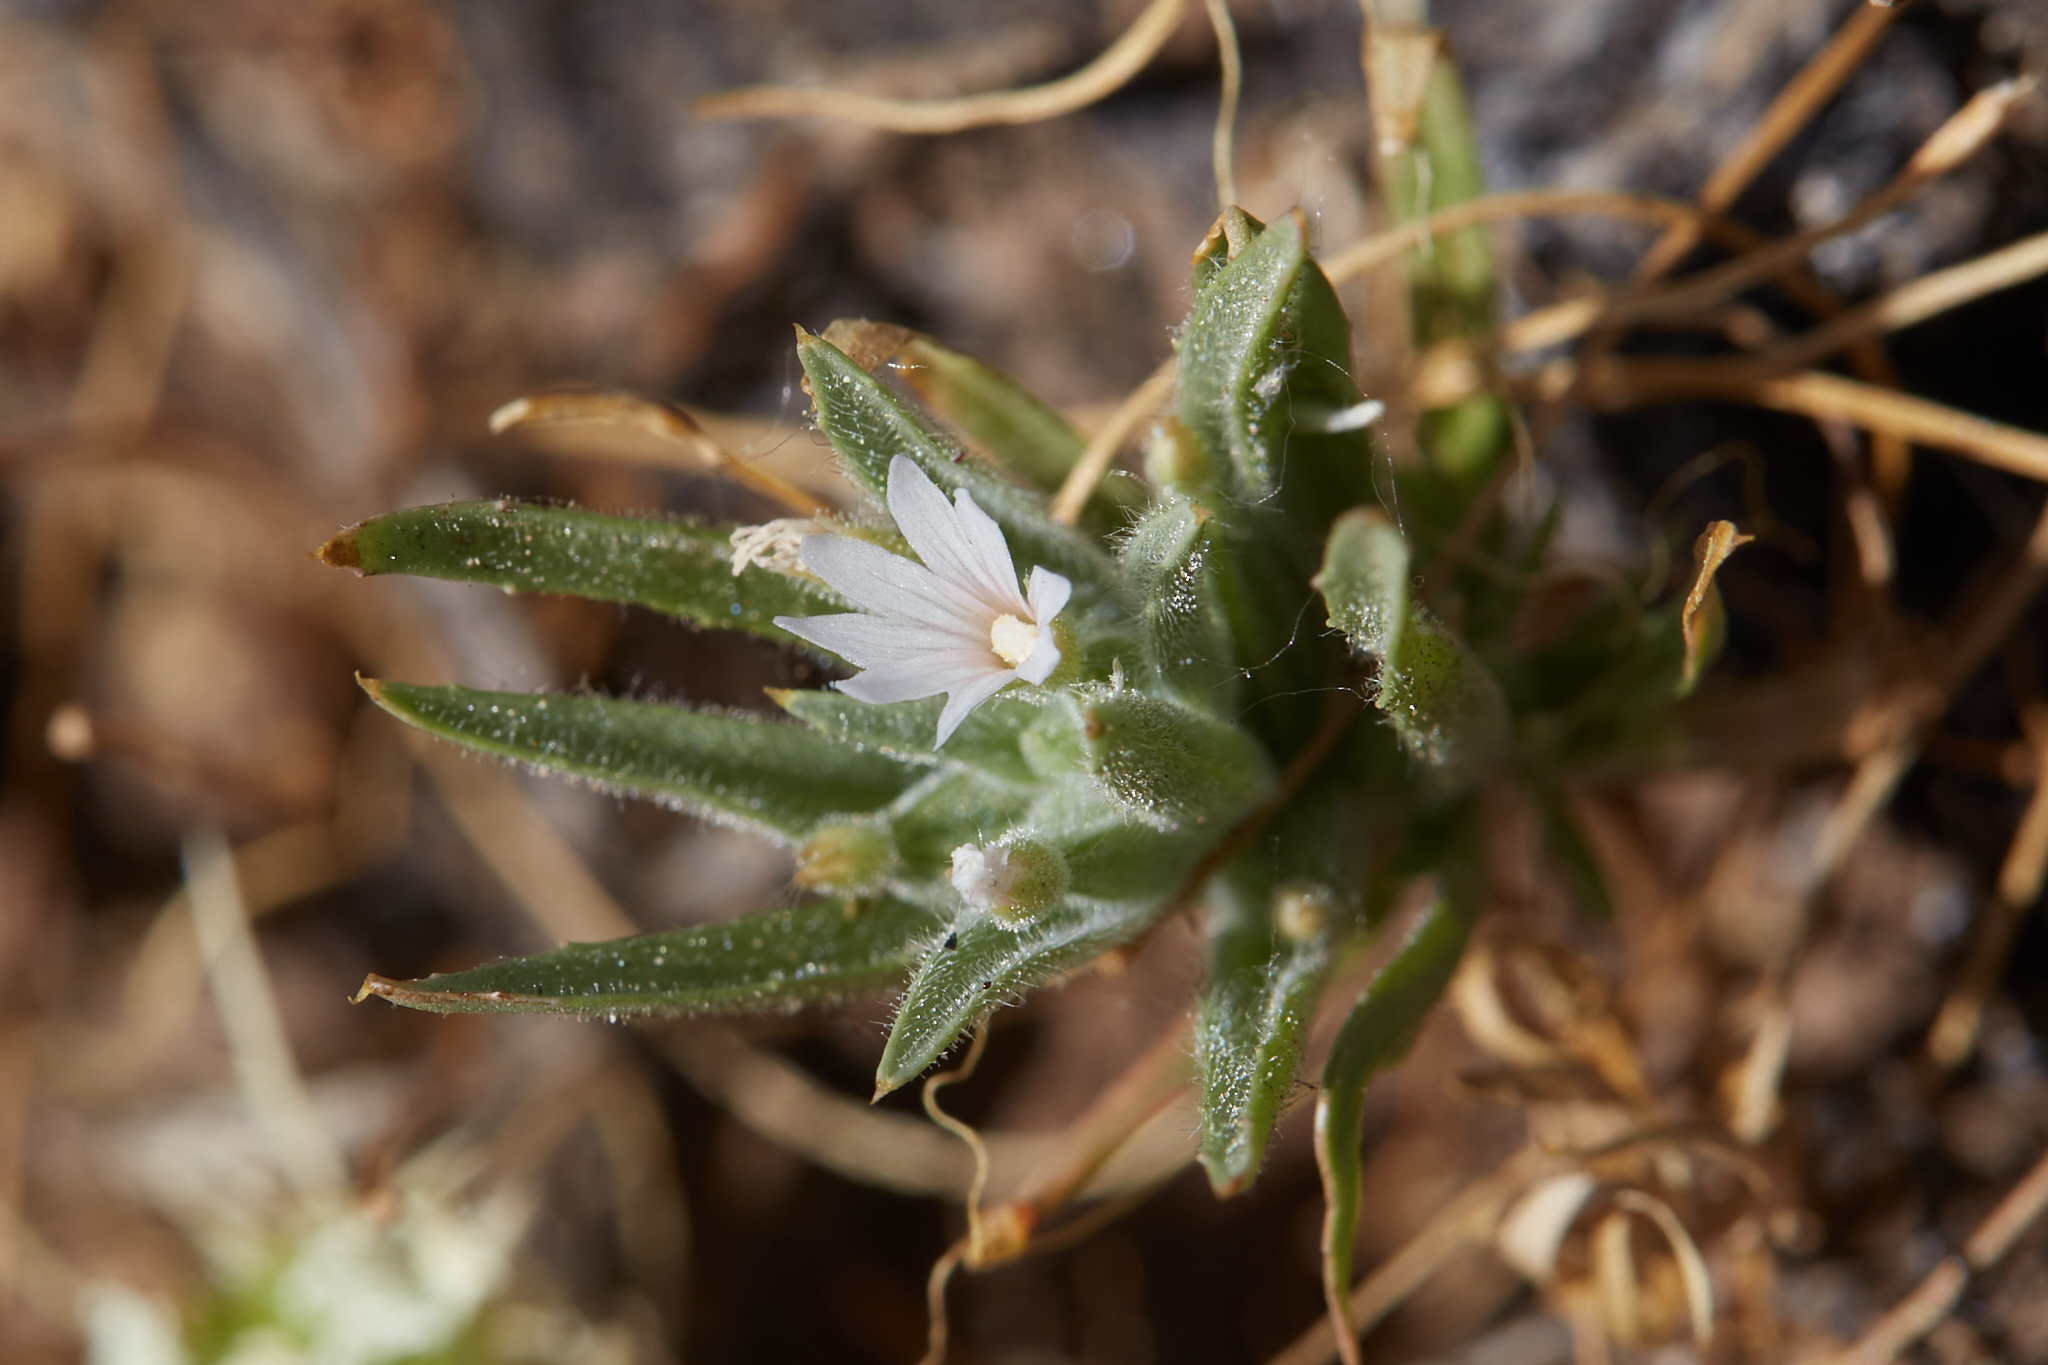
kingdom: Plantae
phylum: Tracheophyta
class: Magnoliopsida
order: Myrtales
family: Onagraceae
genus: Epilobium
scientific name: Epilobium cleistogamum
